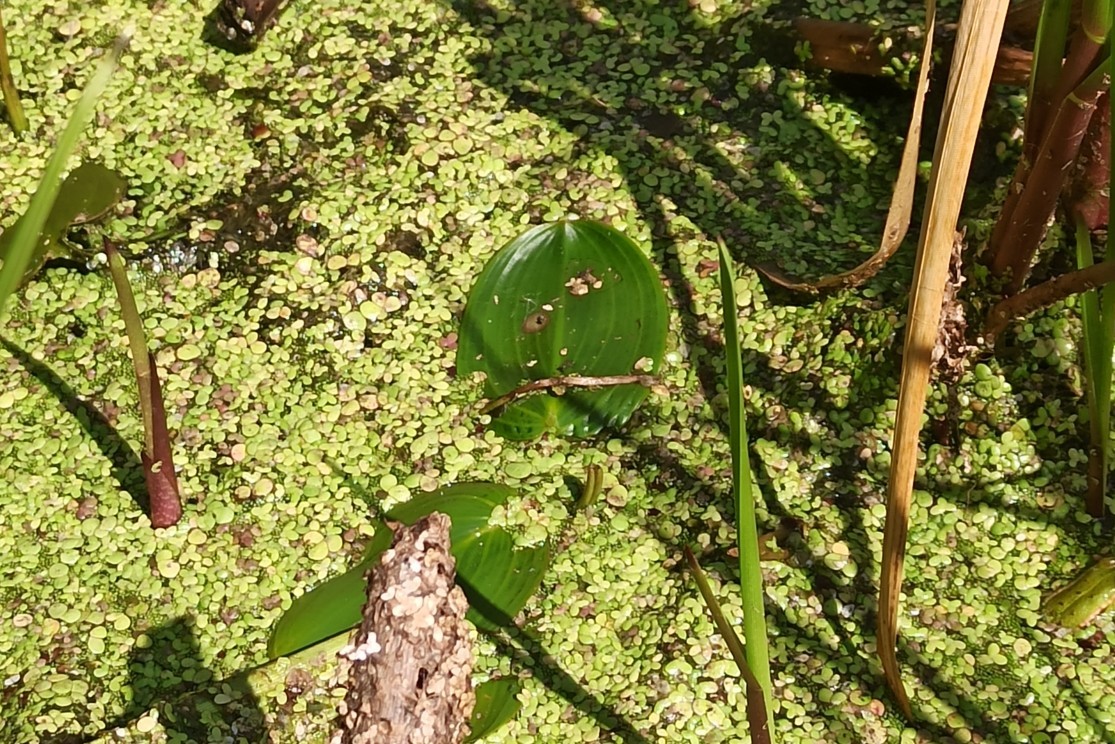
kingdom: Plantae
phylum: Tracheophyta
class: Liliopsida
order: Alismatales
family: Potamogetonaceae
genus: Potamogeton
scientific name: Potamogeton natans
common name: Broad-leaved pondweed
